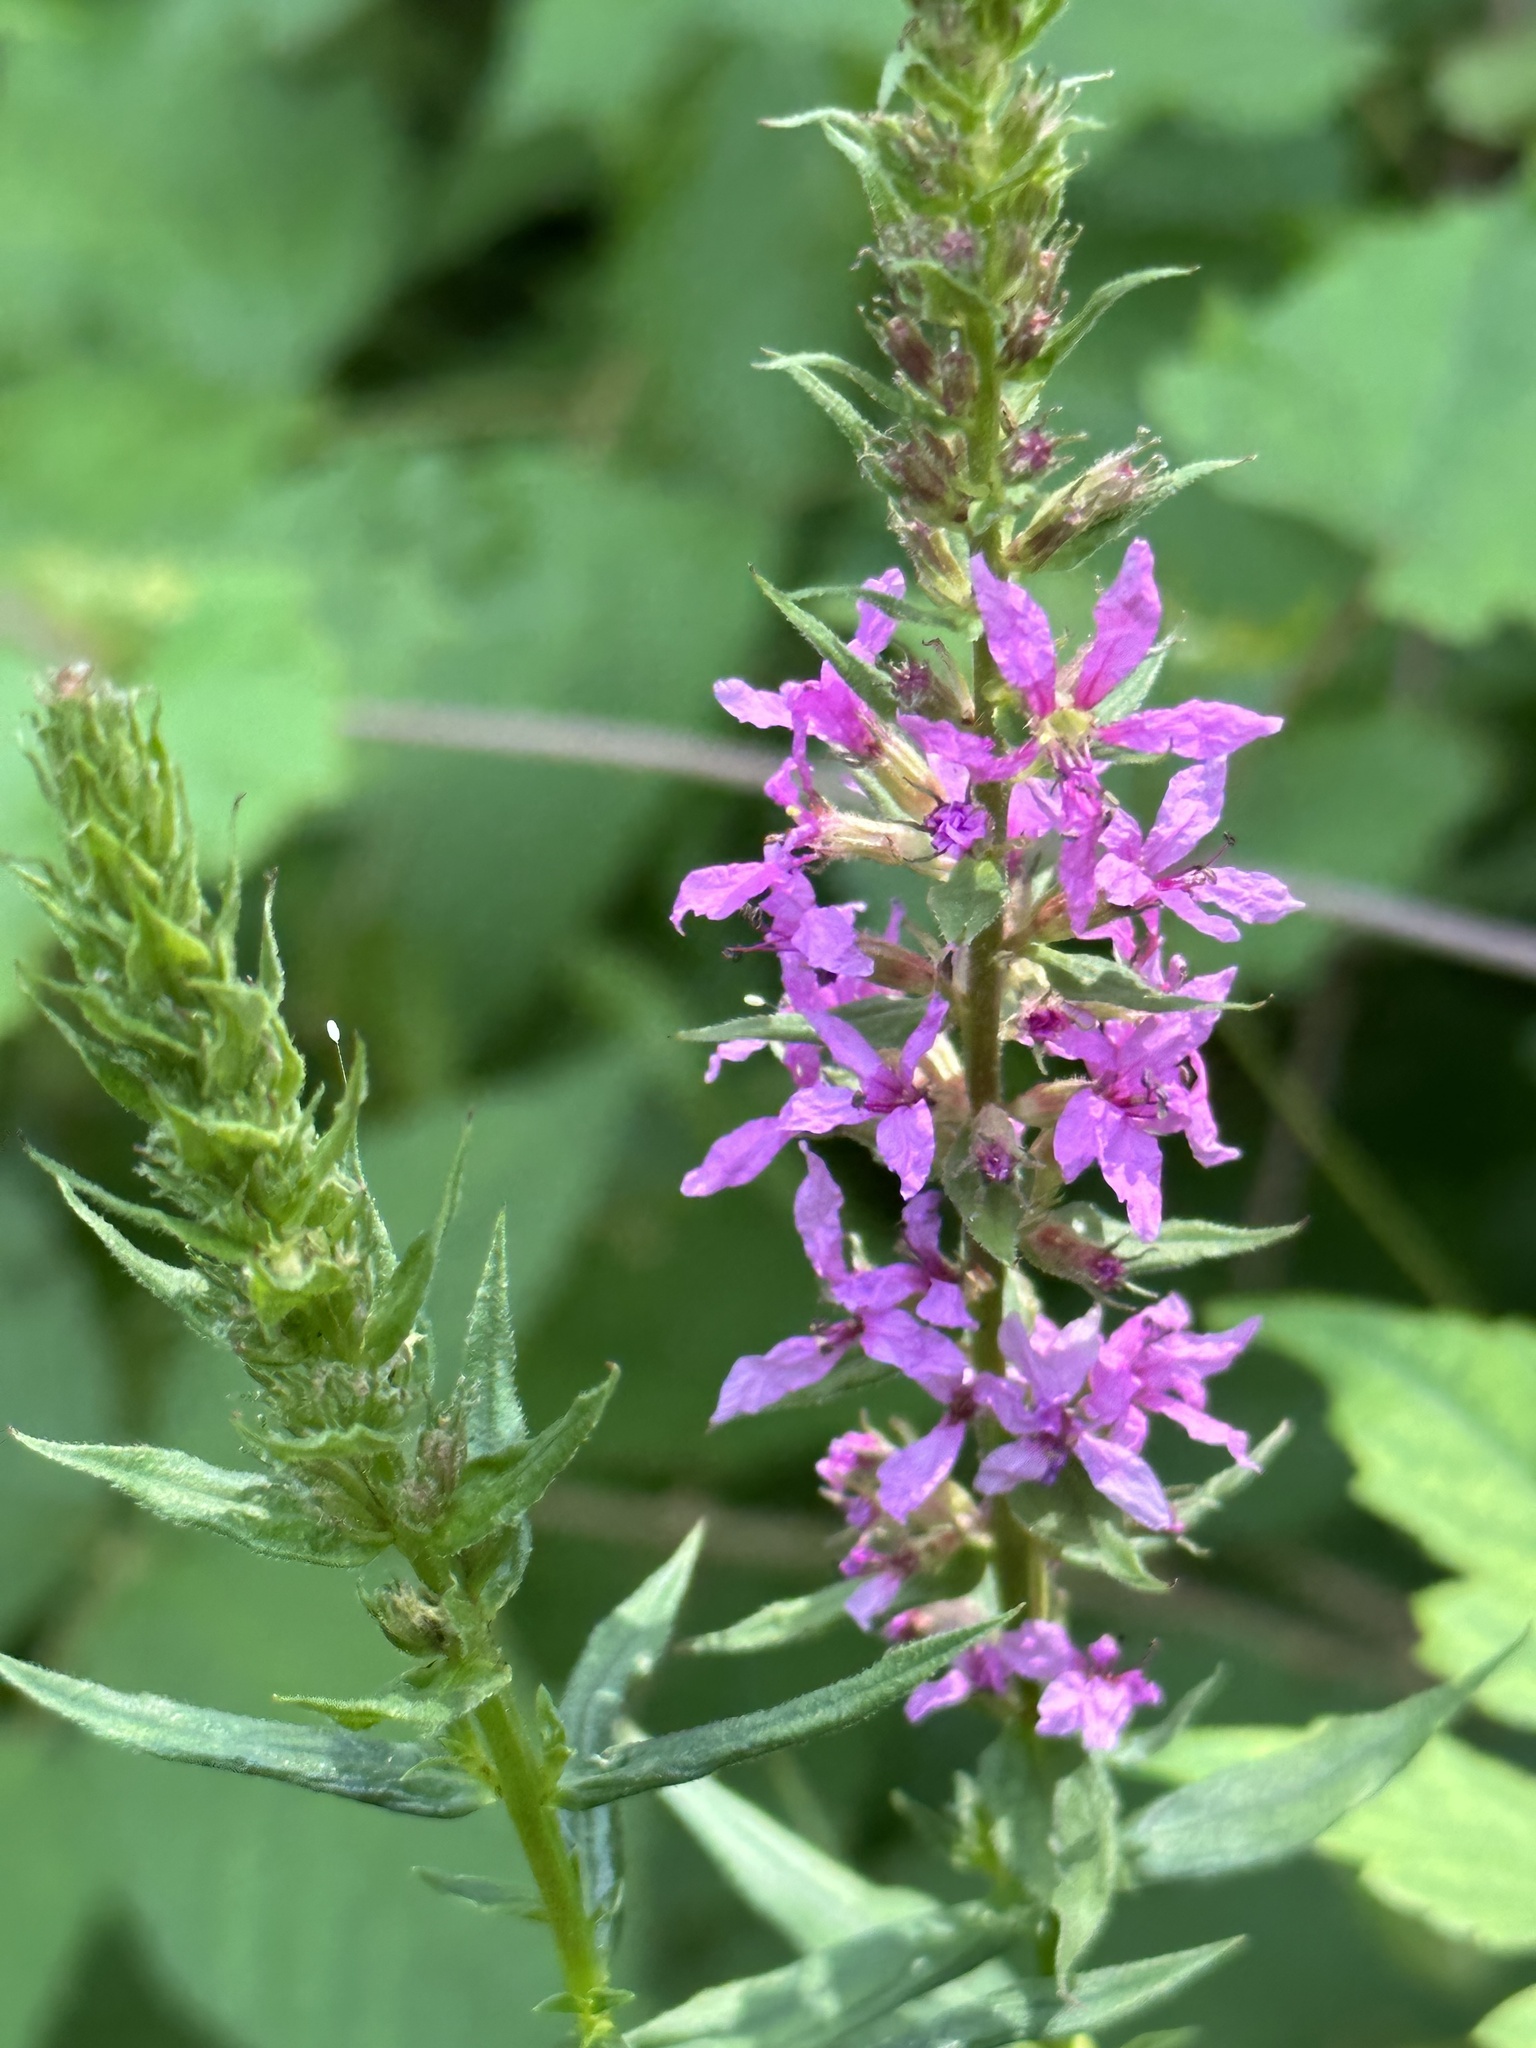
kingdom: Plantae
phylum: Tracheophyta
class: Magnoliopsida
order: Myrtales
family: Lythraceae
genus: Lythrum
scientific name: Lythrum salicaria
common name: Purple loosestrife
